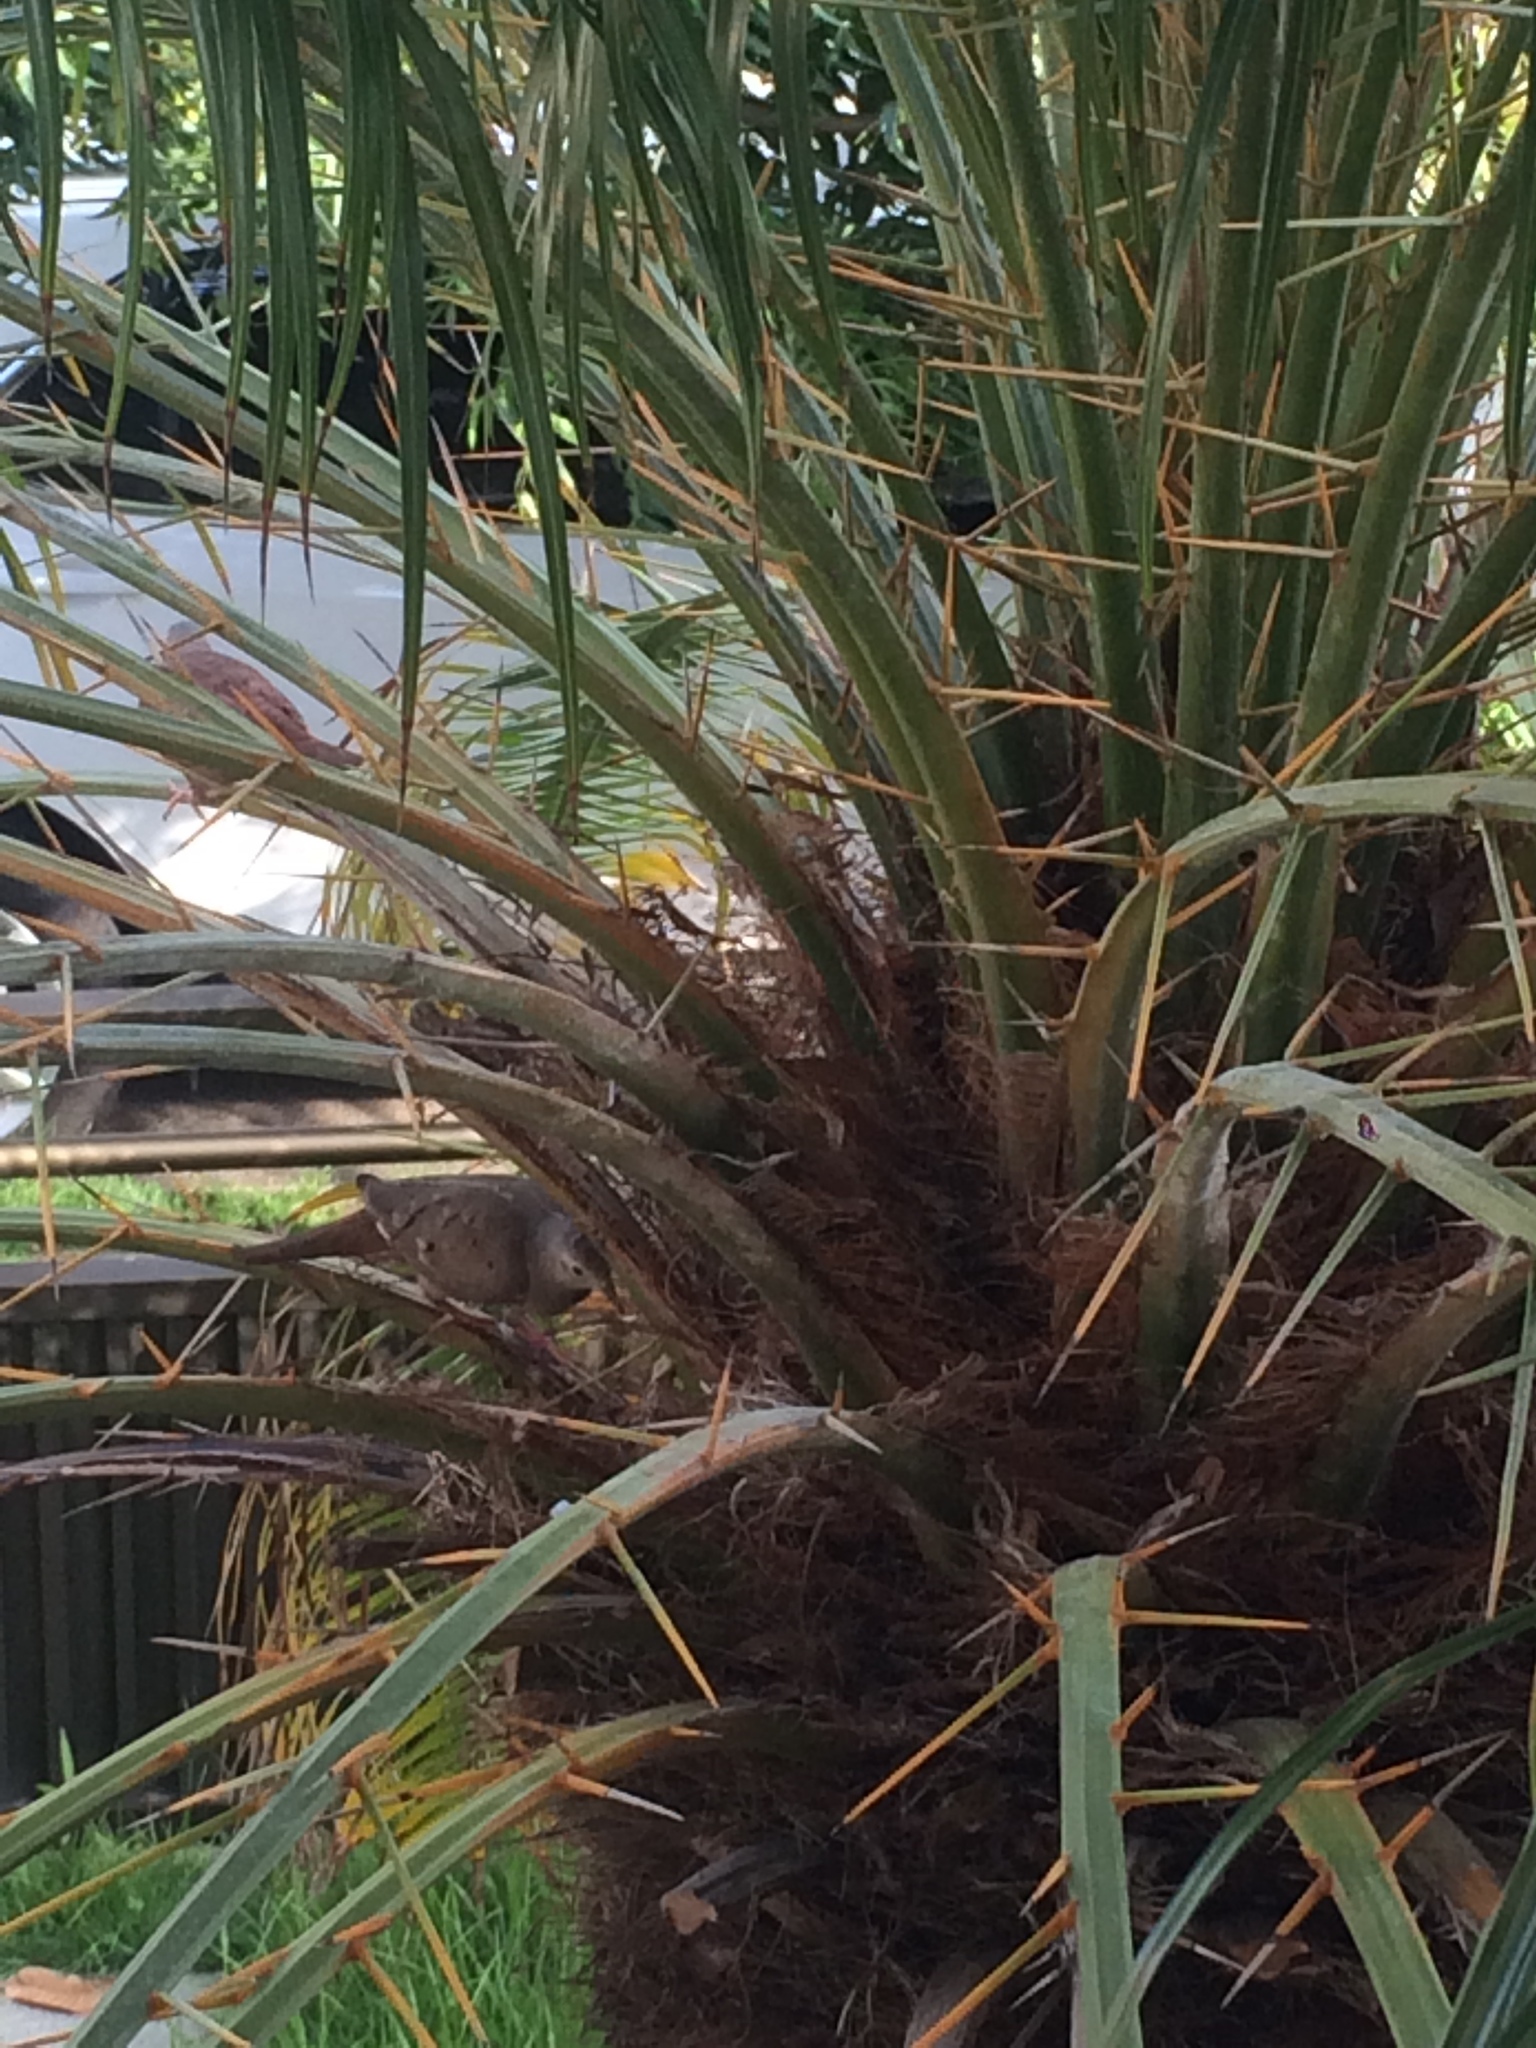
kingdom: Animalia
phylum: Chordata
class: Aves
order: Columbiformes
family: Columbidae
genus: Columbina
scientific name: Columbina talpacoti
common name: Ruddy ground dove
